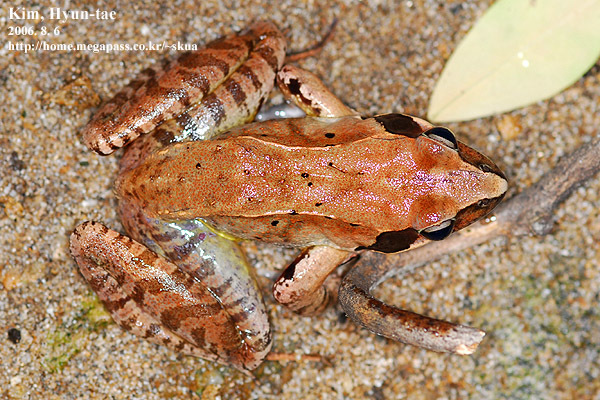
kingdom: Animalia
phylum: Chordata
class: Amphibia
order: Anura
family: Ranidae
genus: Rana
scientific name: Rana uenoi
